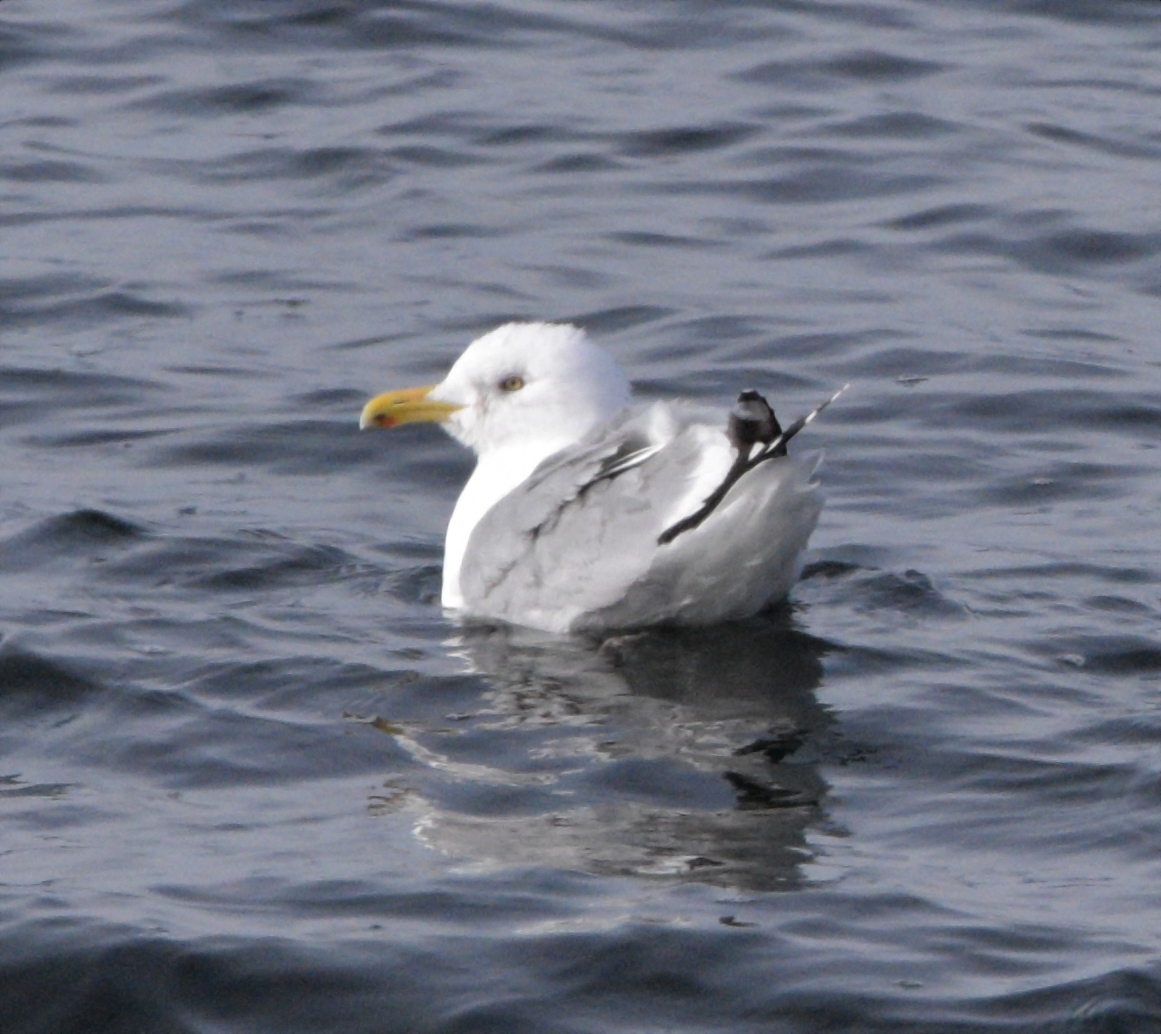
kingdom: Animalia
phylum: Chordata
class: Aves
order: Charadriiformes
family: Laridae
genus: Larus
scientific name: Larus argentatus
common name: Herring gull
